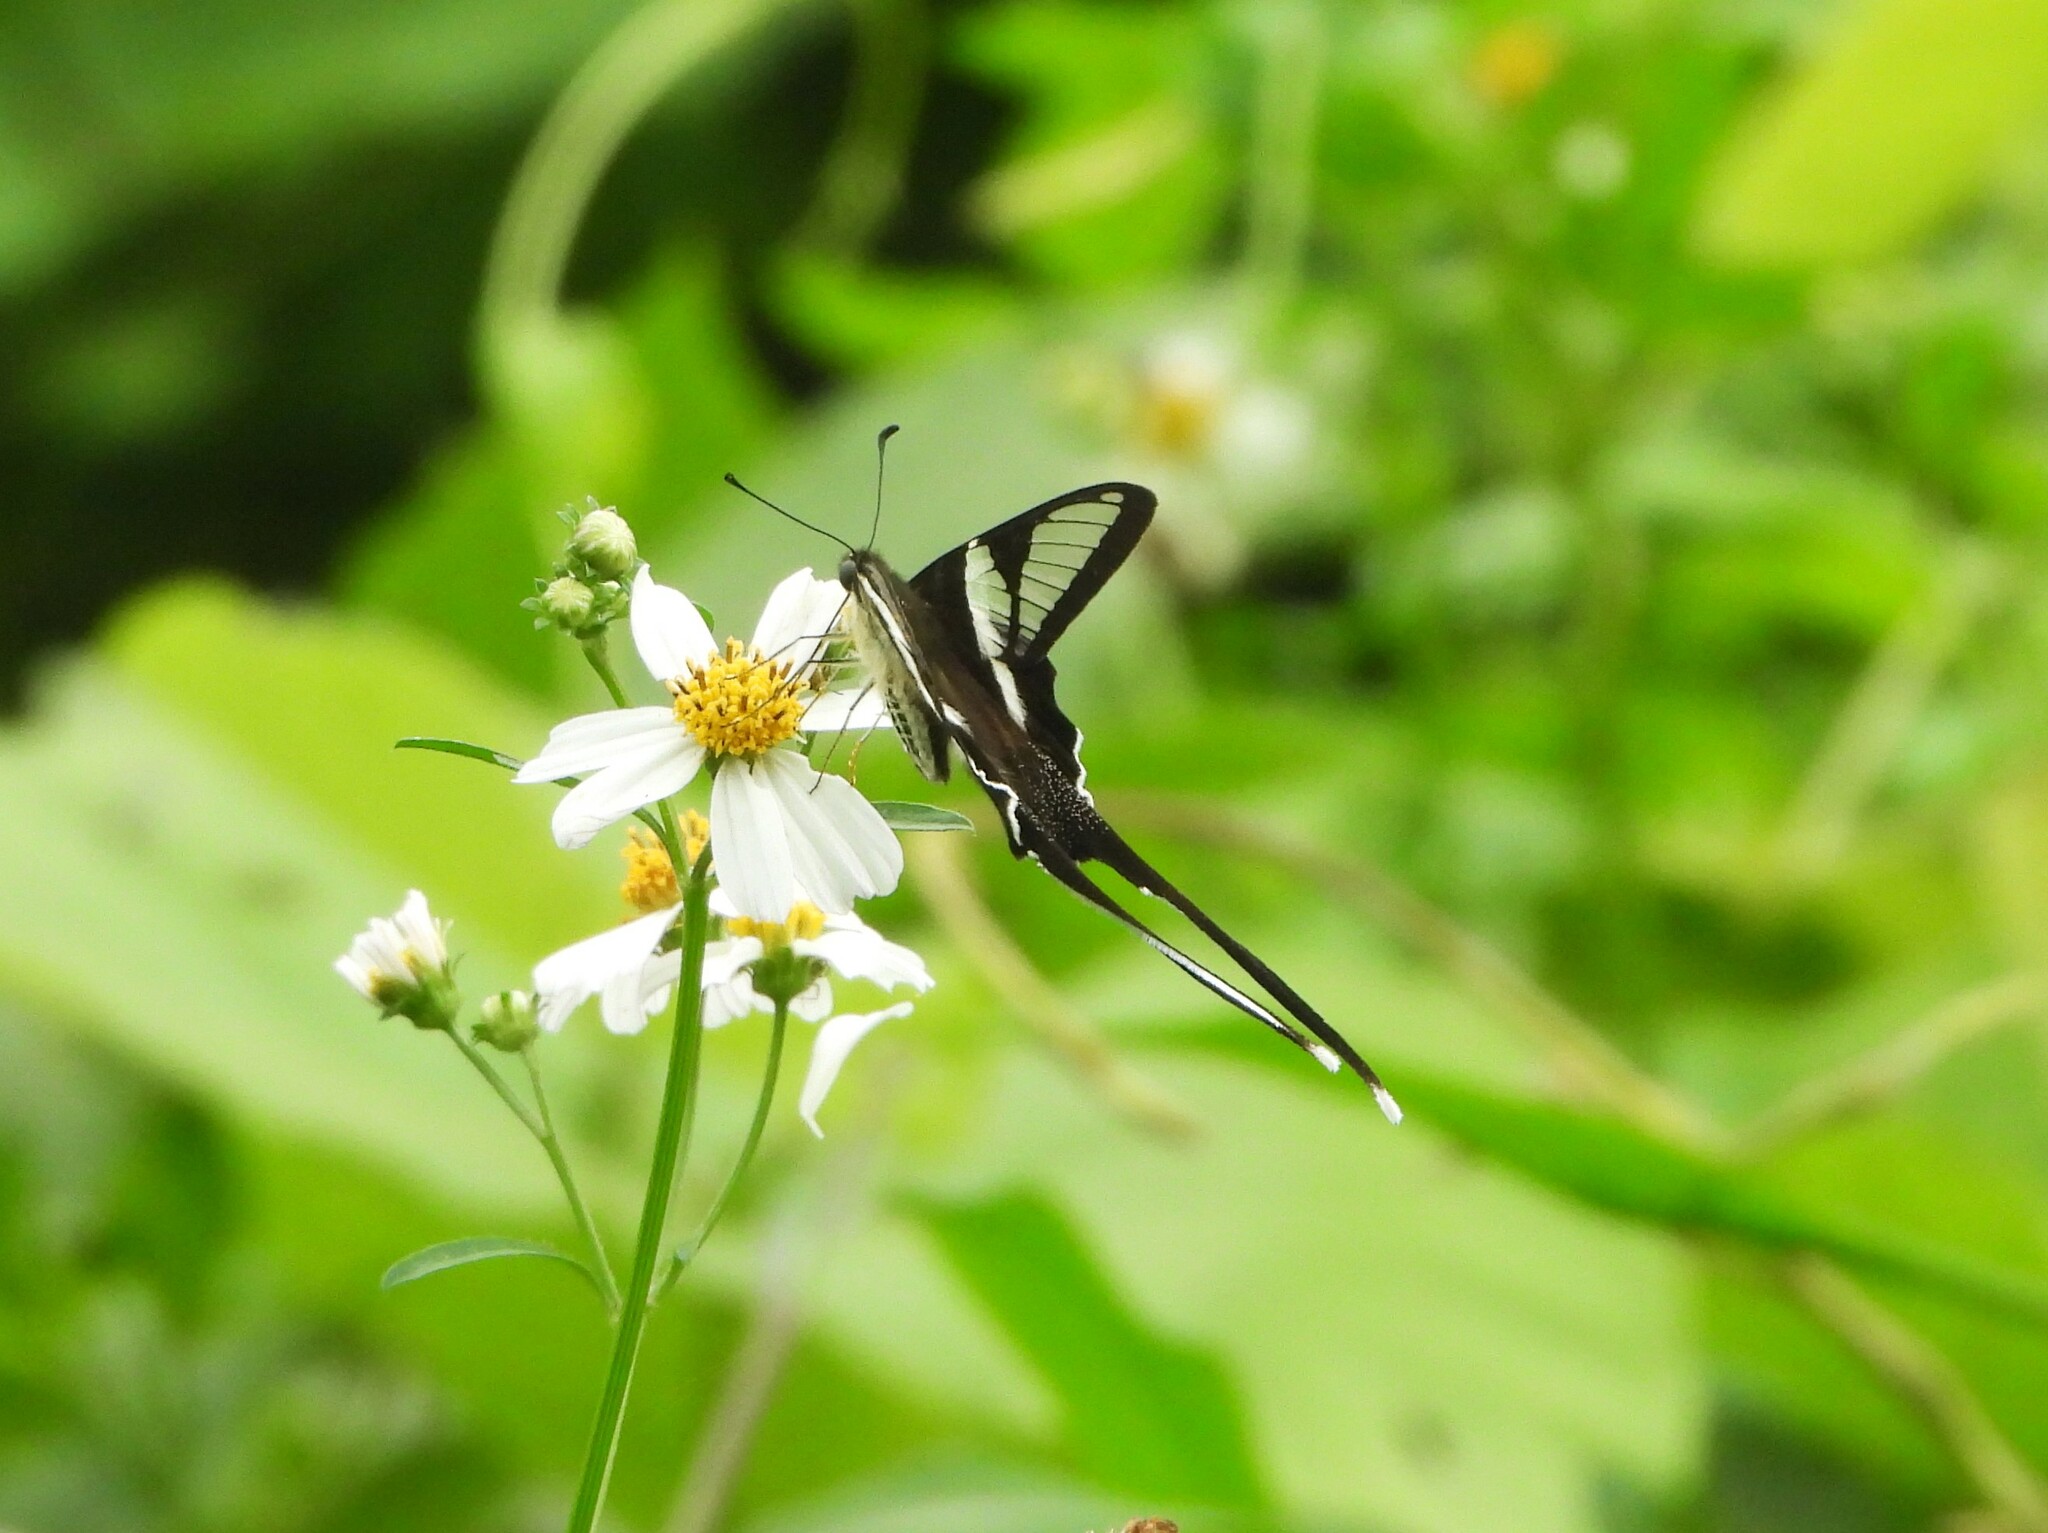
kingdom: Animalia
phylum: Arthropoda
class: Insecta
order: Lepidoptera
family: Papilionidae
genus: Lamproptera
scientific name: Lamproptera curius
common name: White dragontail
